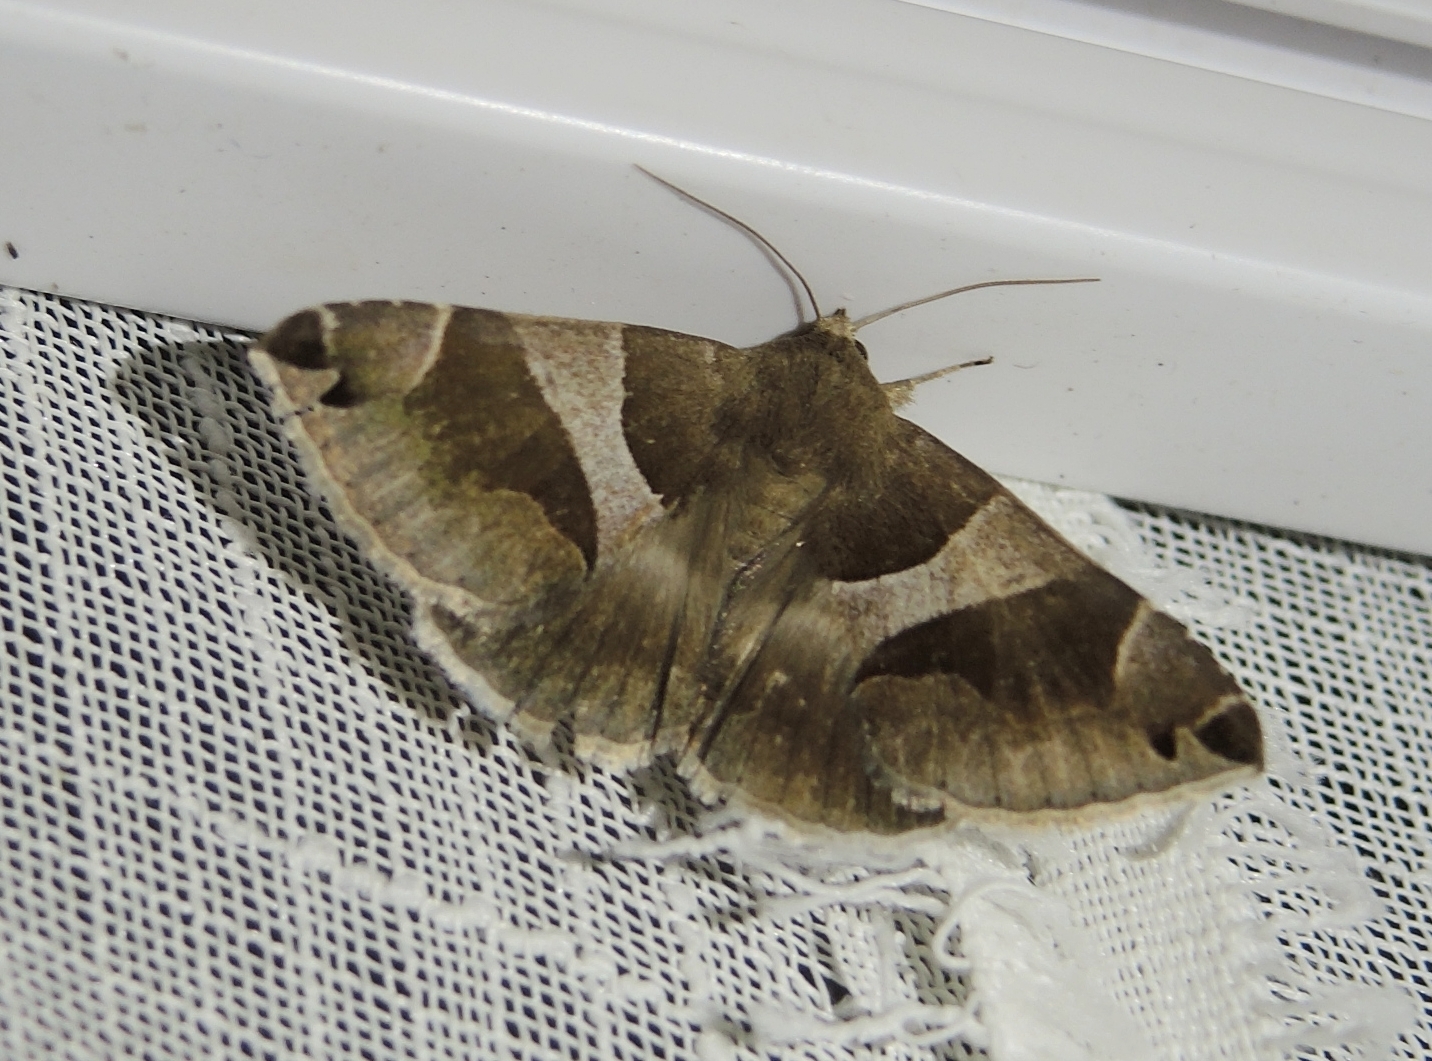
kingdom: Animalia
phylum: Arthropoda
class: Insecta
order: Lepidoptera
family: Erebidae
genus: Dysgonia
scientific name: Dysgonia algira
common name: Passenger
